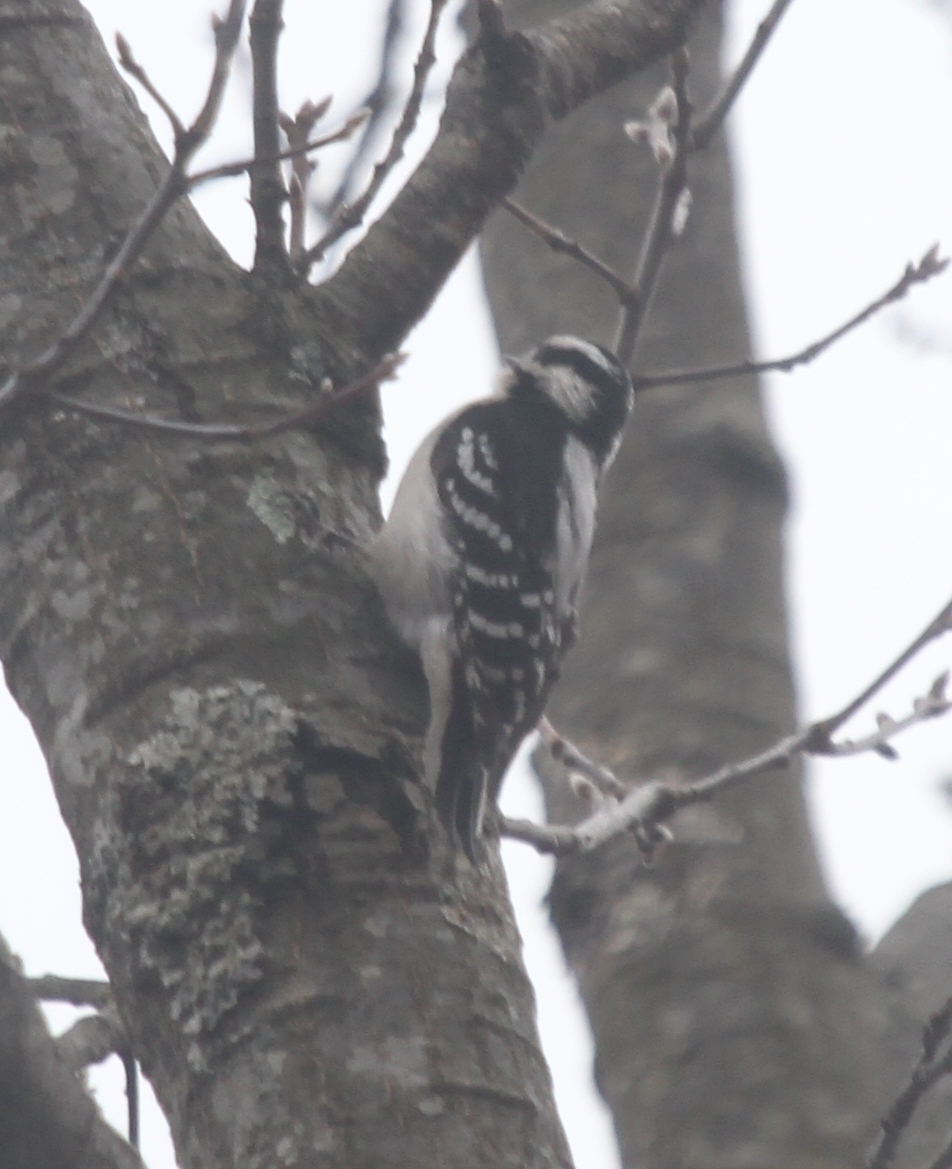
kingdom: Animalia
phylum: Chordata
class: Aves
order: Piciformes
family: Picidae
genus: Dryobates
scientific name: Dryobates pubescens
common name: Downy woodpecker
